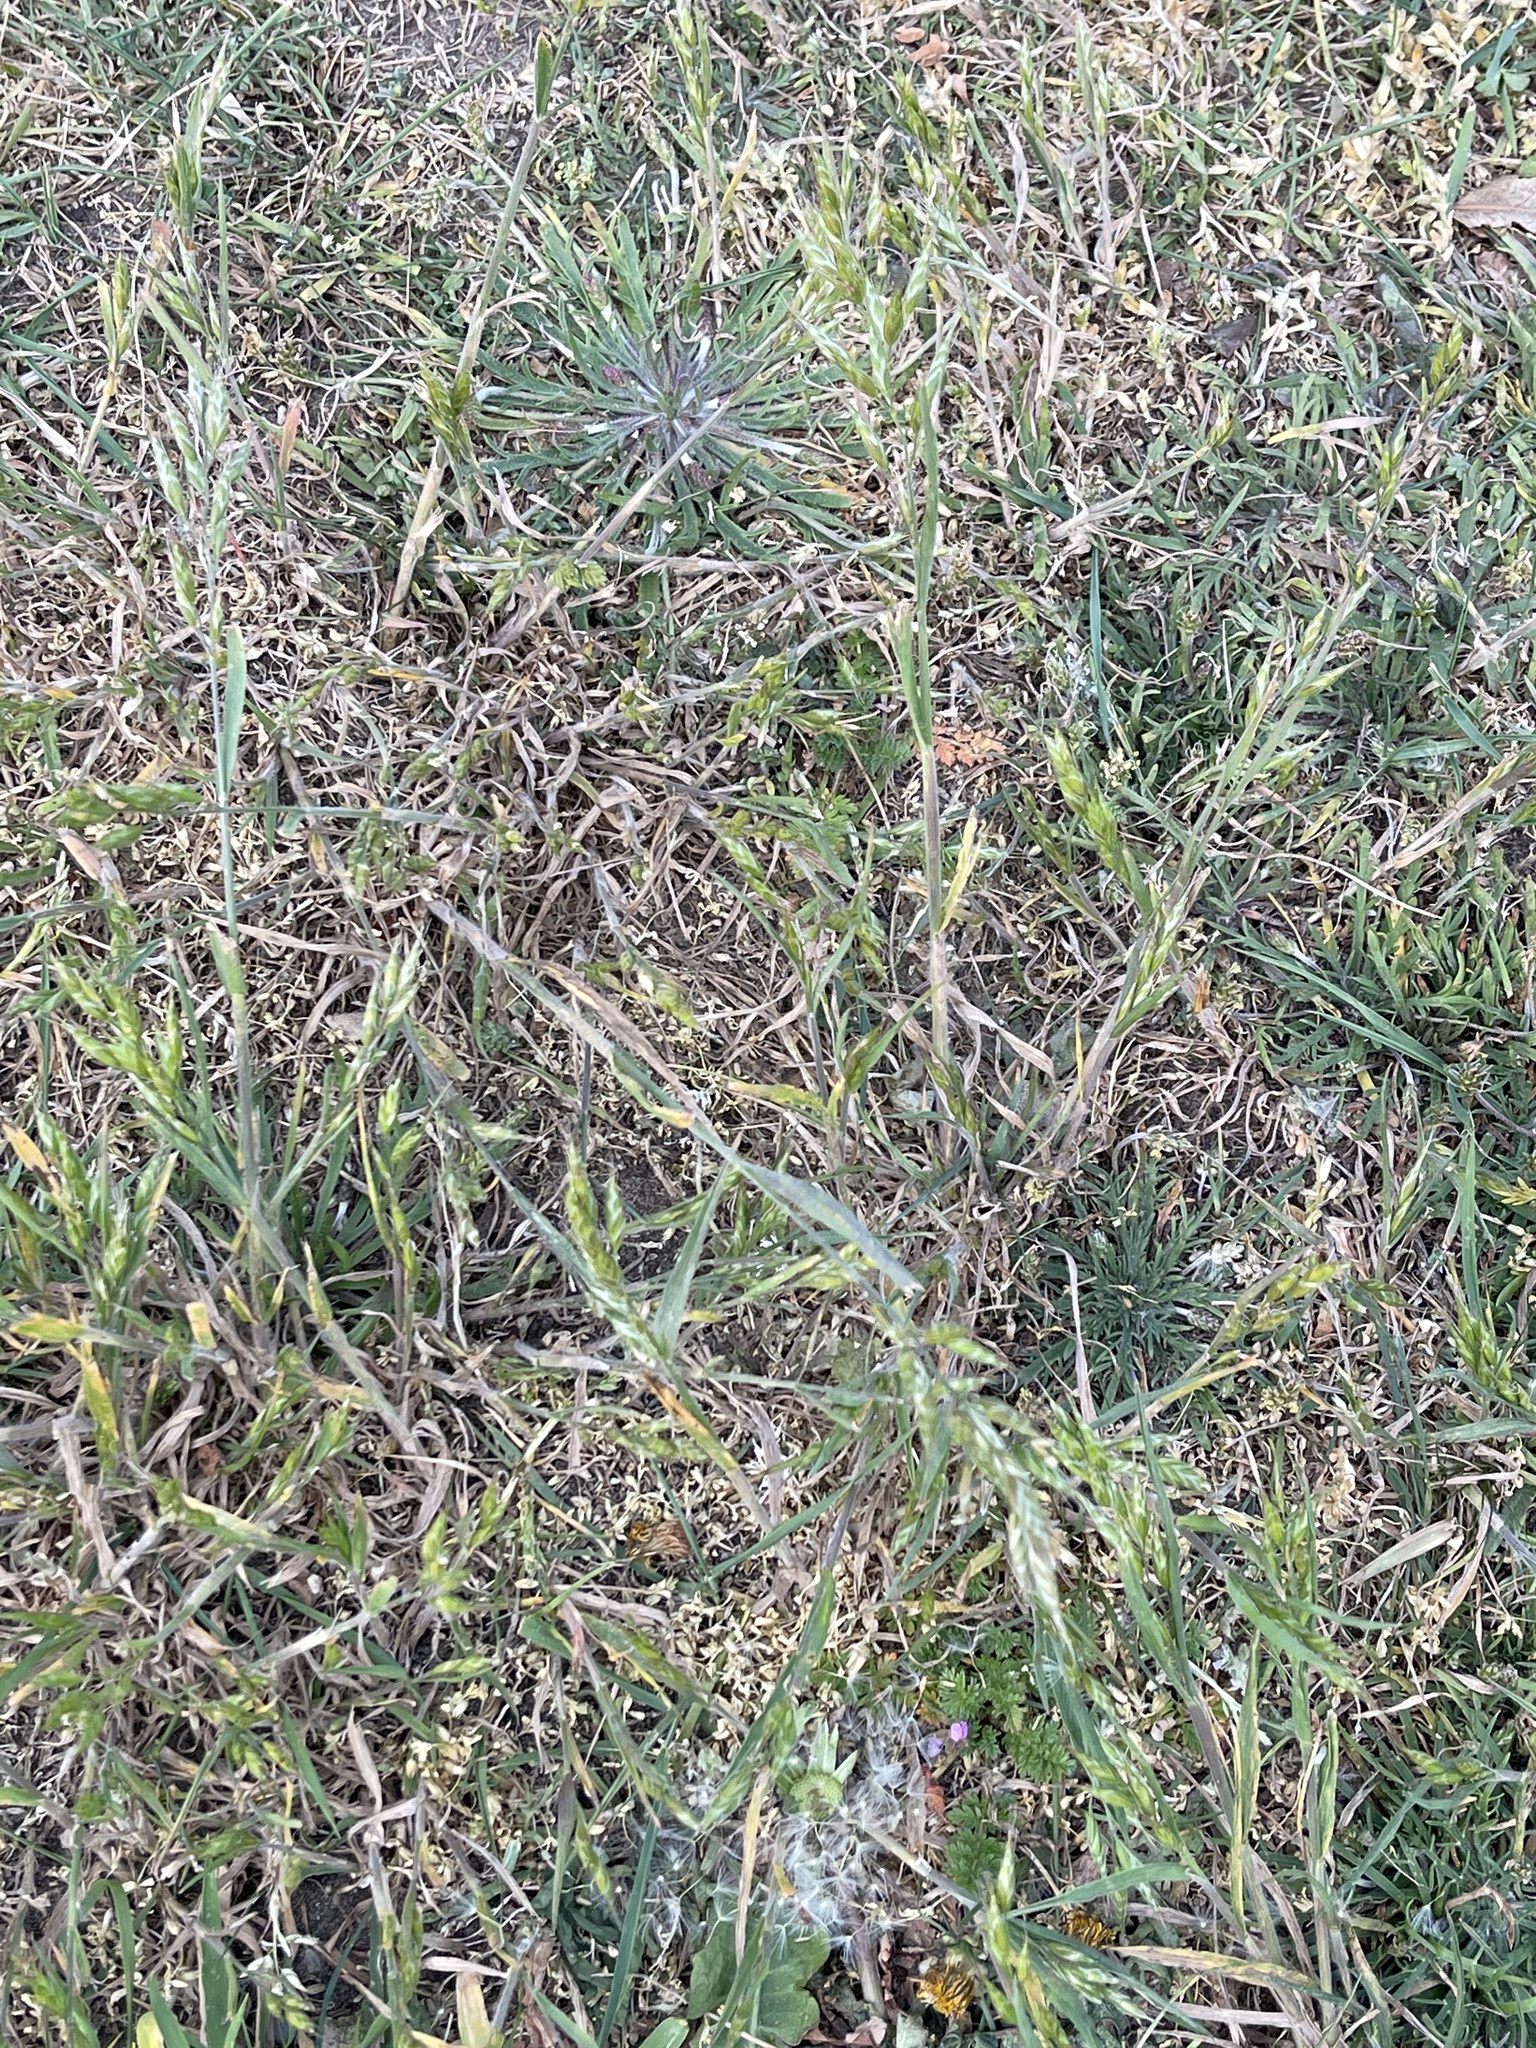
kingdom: Plantae
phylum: Tracheophyta
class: Liliopsida
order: Poales
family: Poaceae
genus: Bromus
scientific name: Bromus hordeaceus
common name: Soft brome
